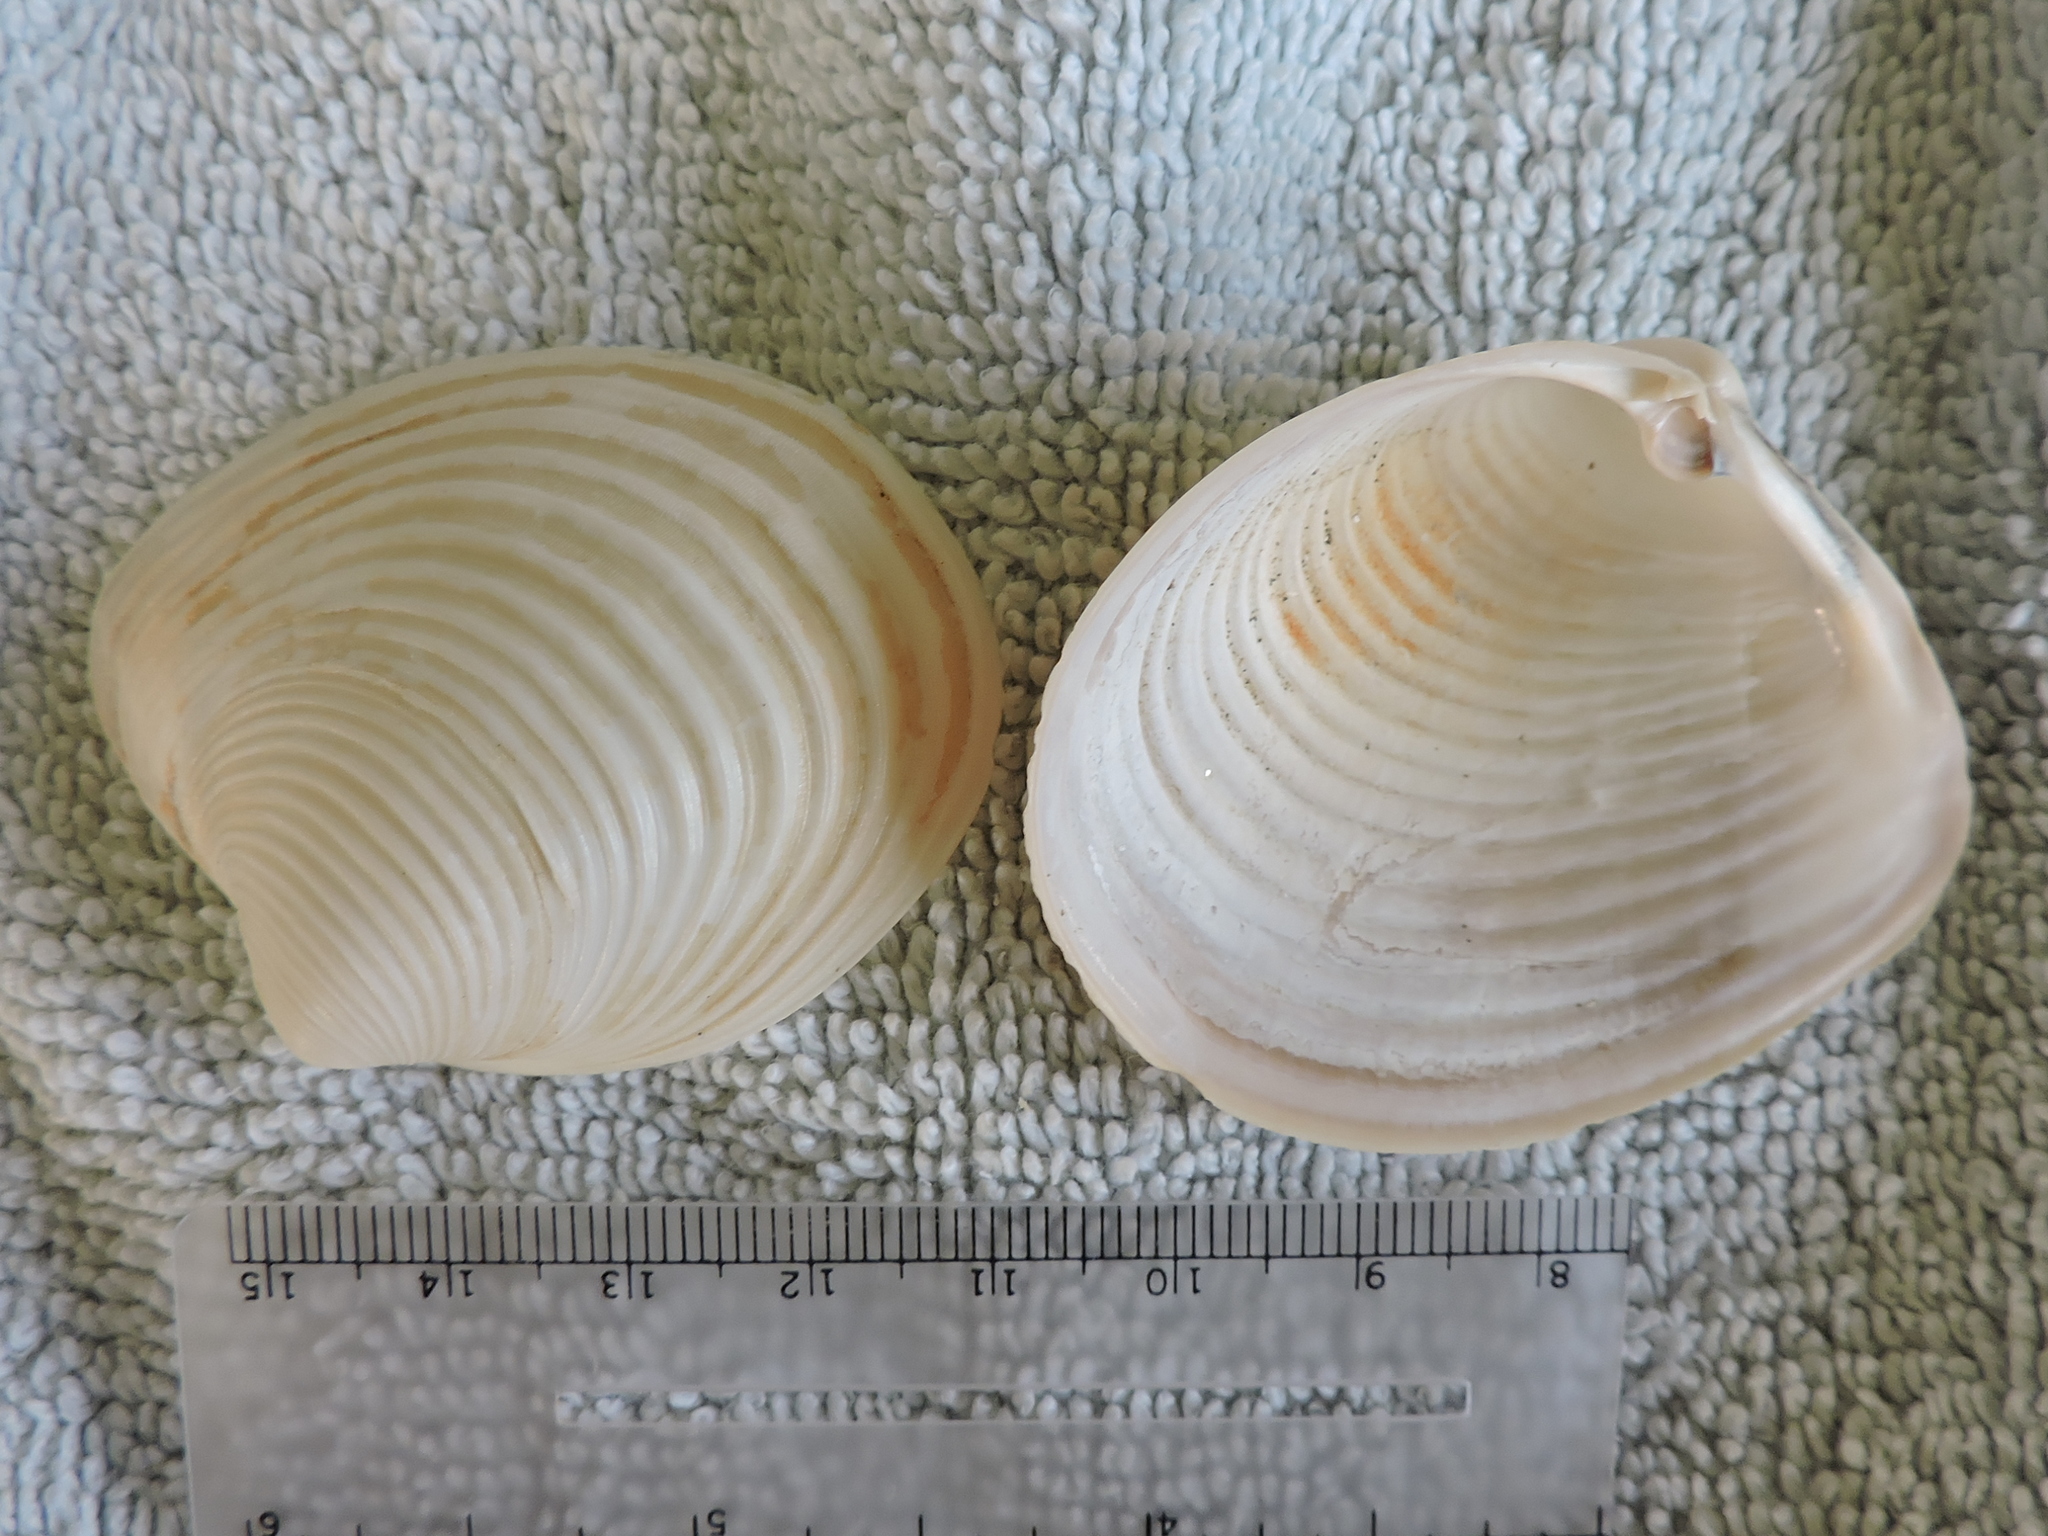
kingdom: Animalia
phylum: Mollusca
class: Bivalvia
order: Venerida
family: Anatinellidae
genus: Raeta
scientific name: Raeta plicatella
